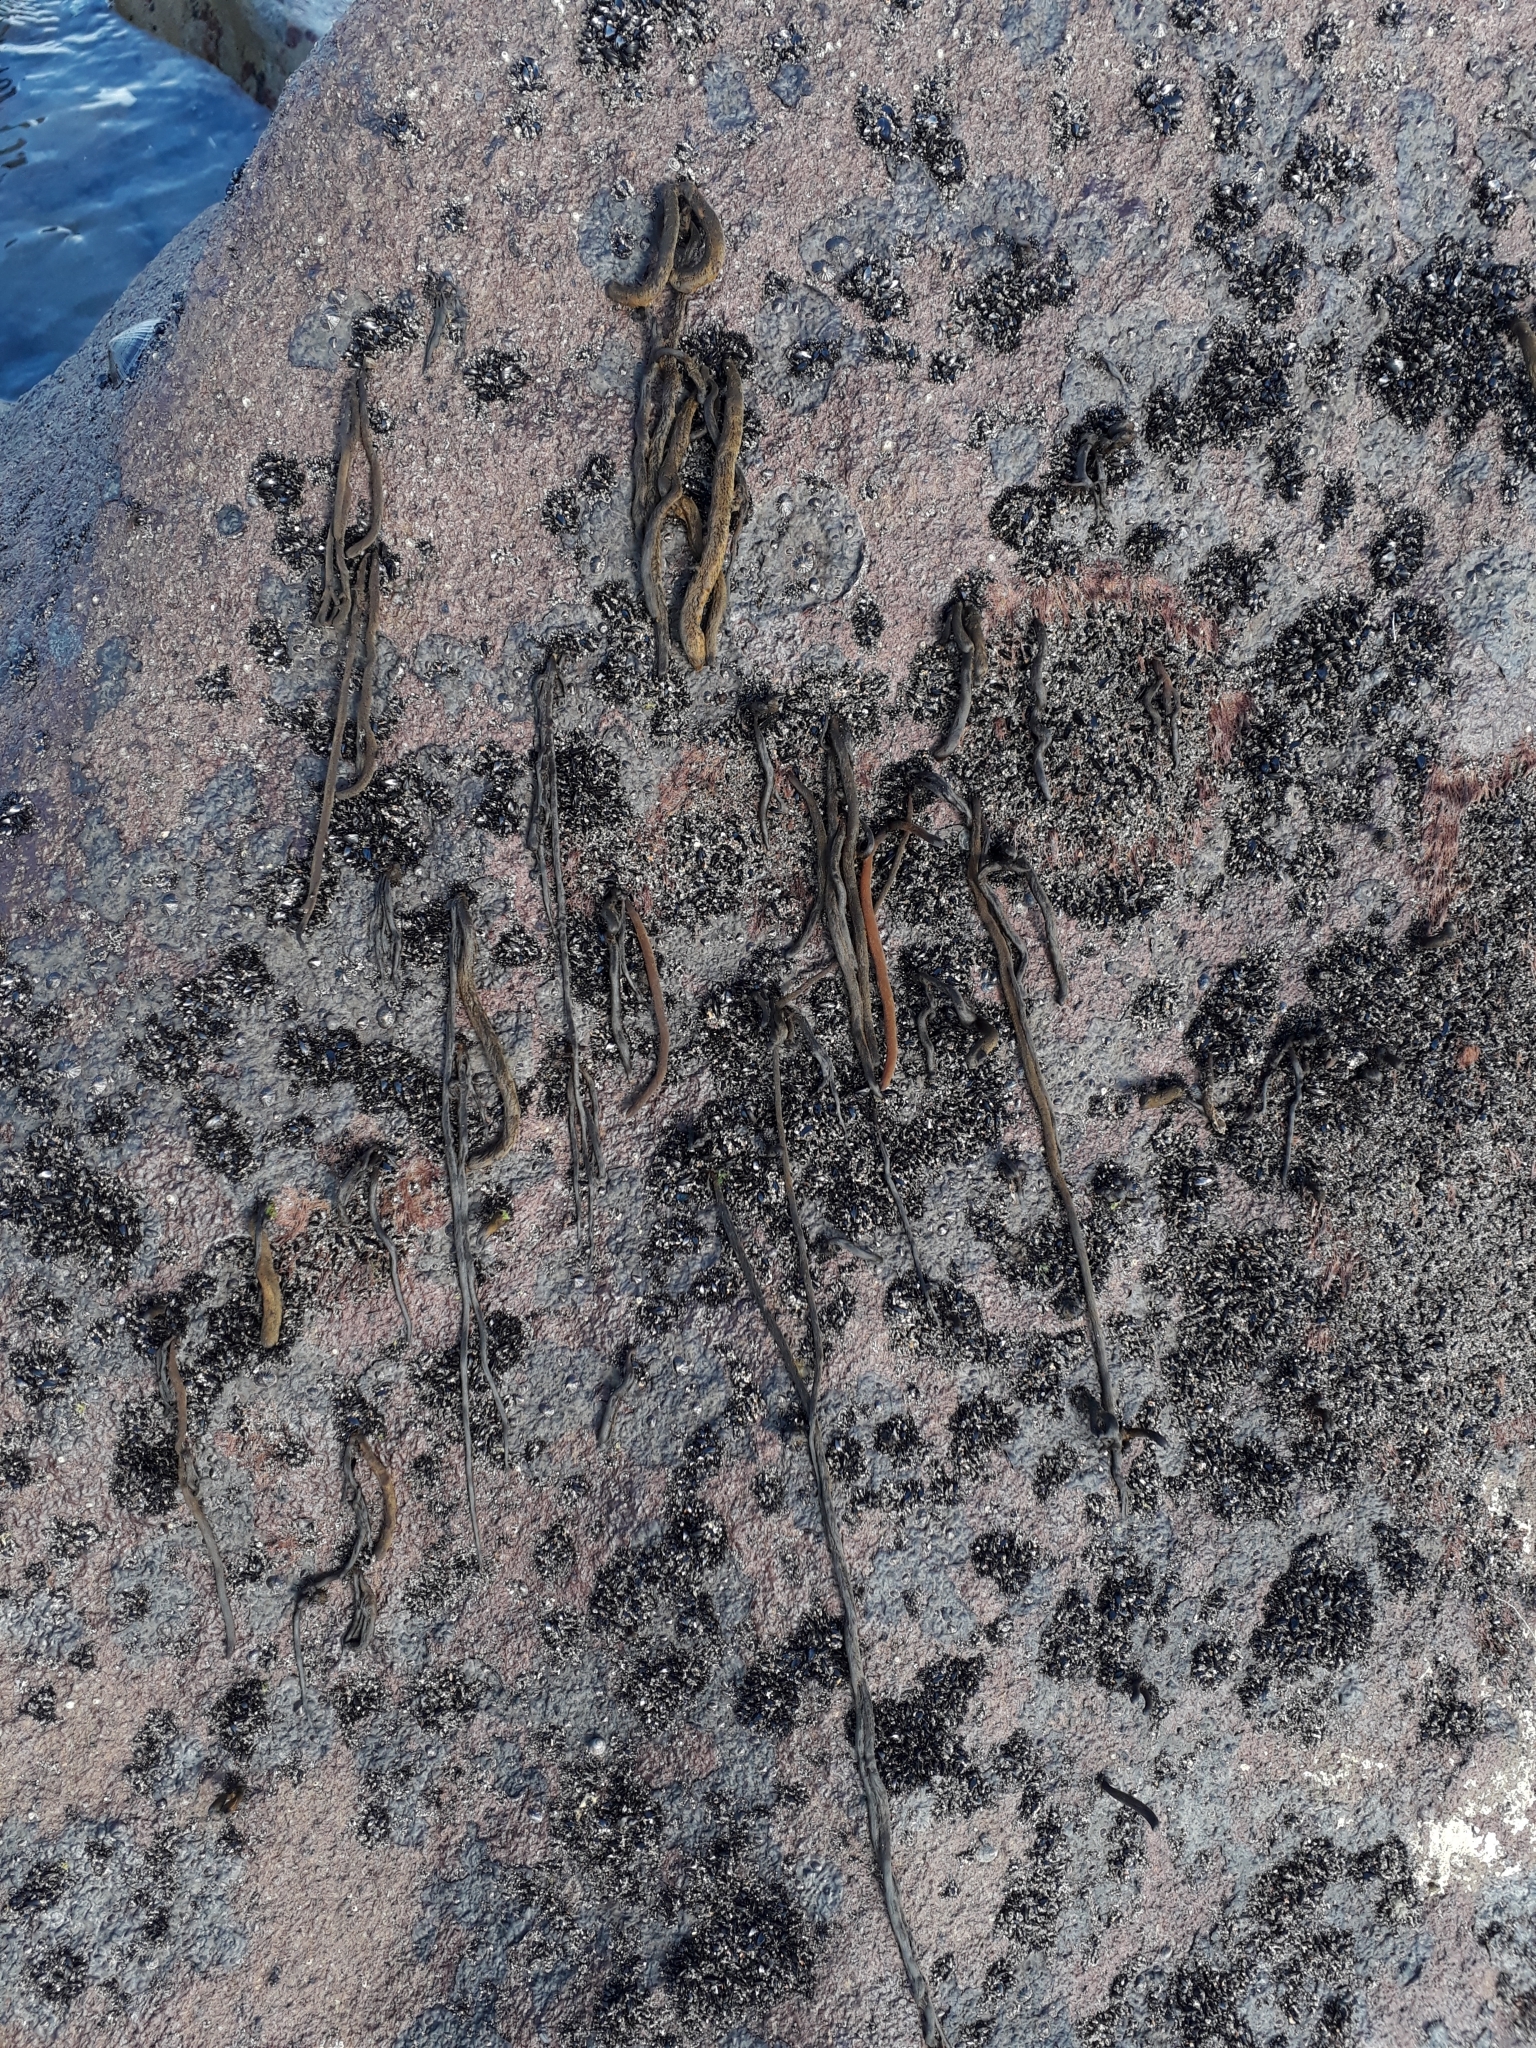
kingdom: Chromista
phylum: Ochrophyta
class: Phaeophyceae
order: Ectocarpales
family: Chordariaceae
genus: Myriogloea
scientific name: Myriogloea intestinalis
